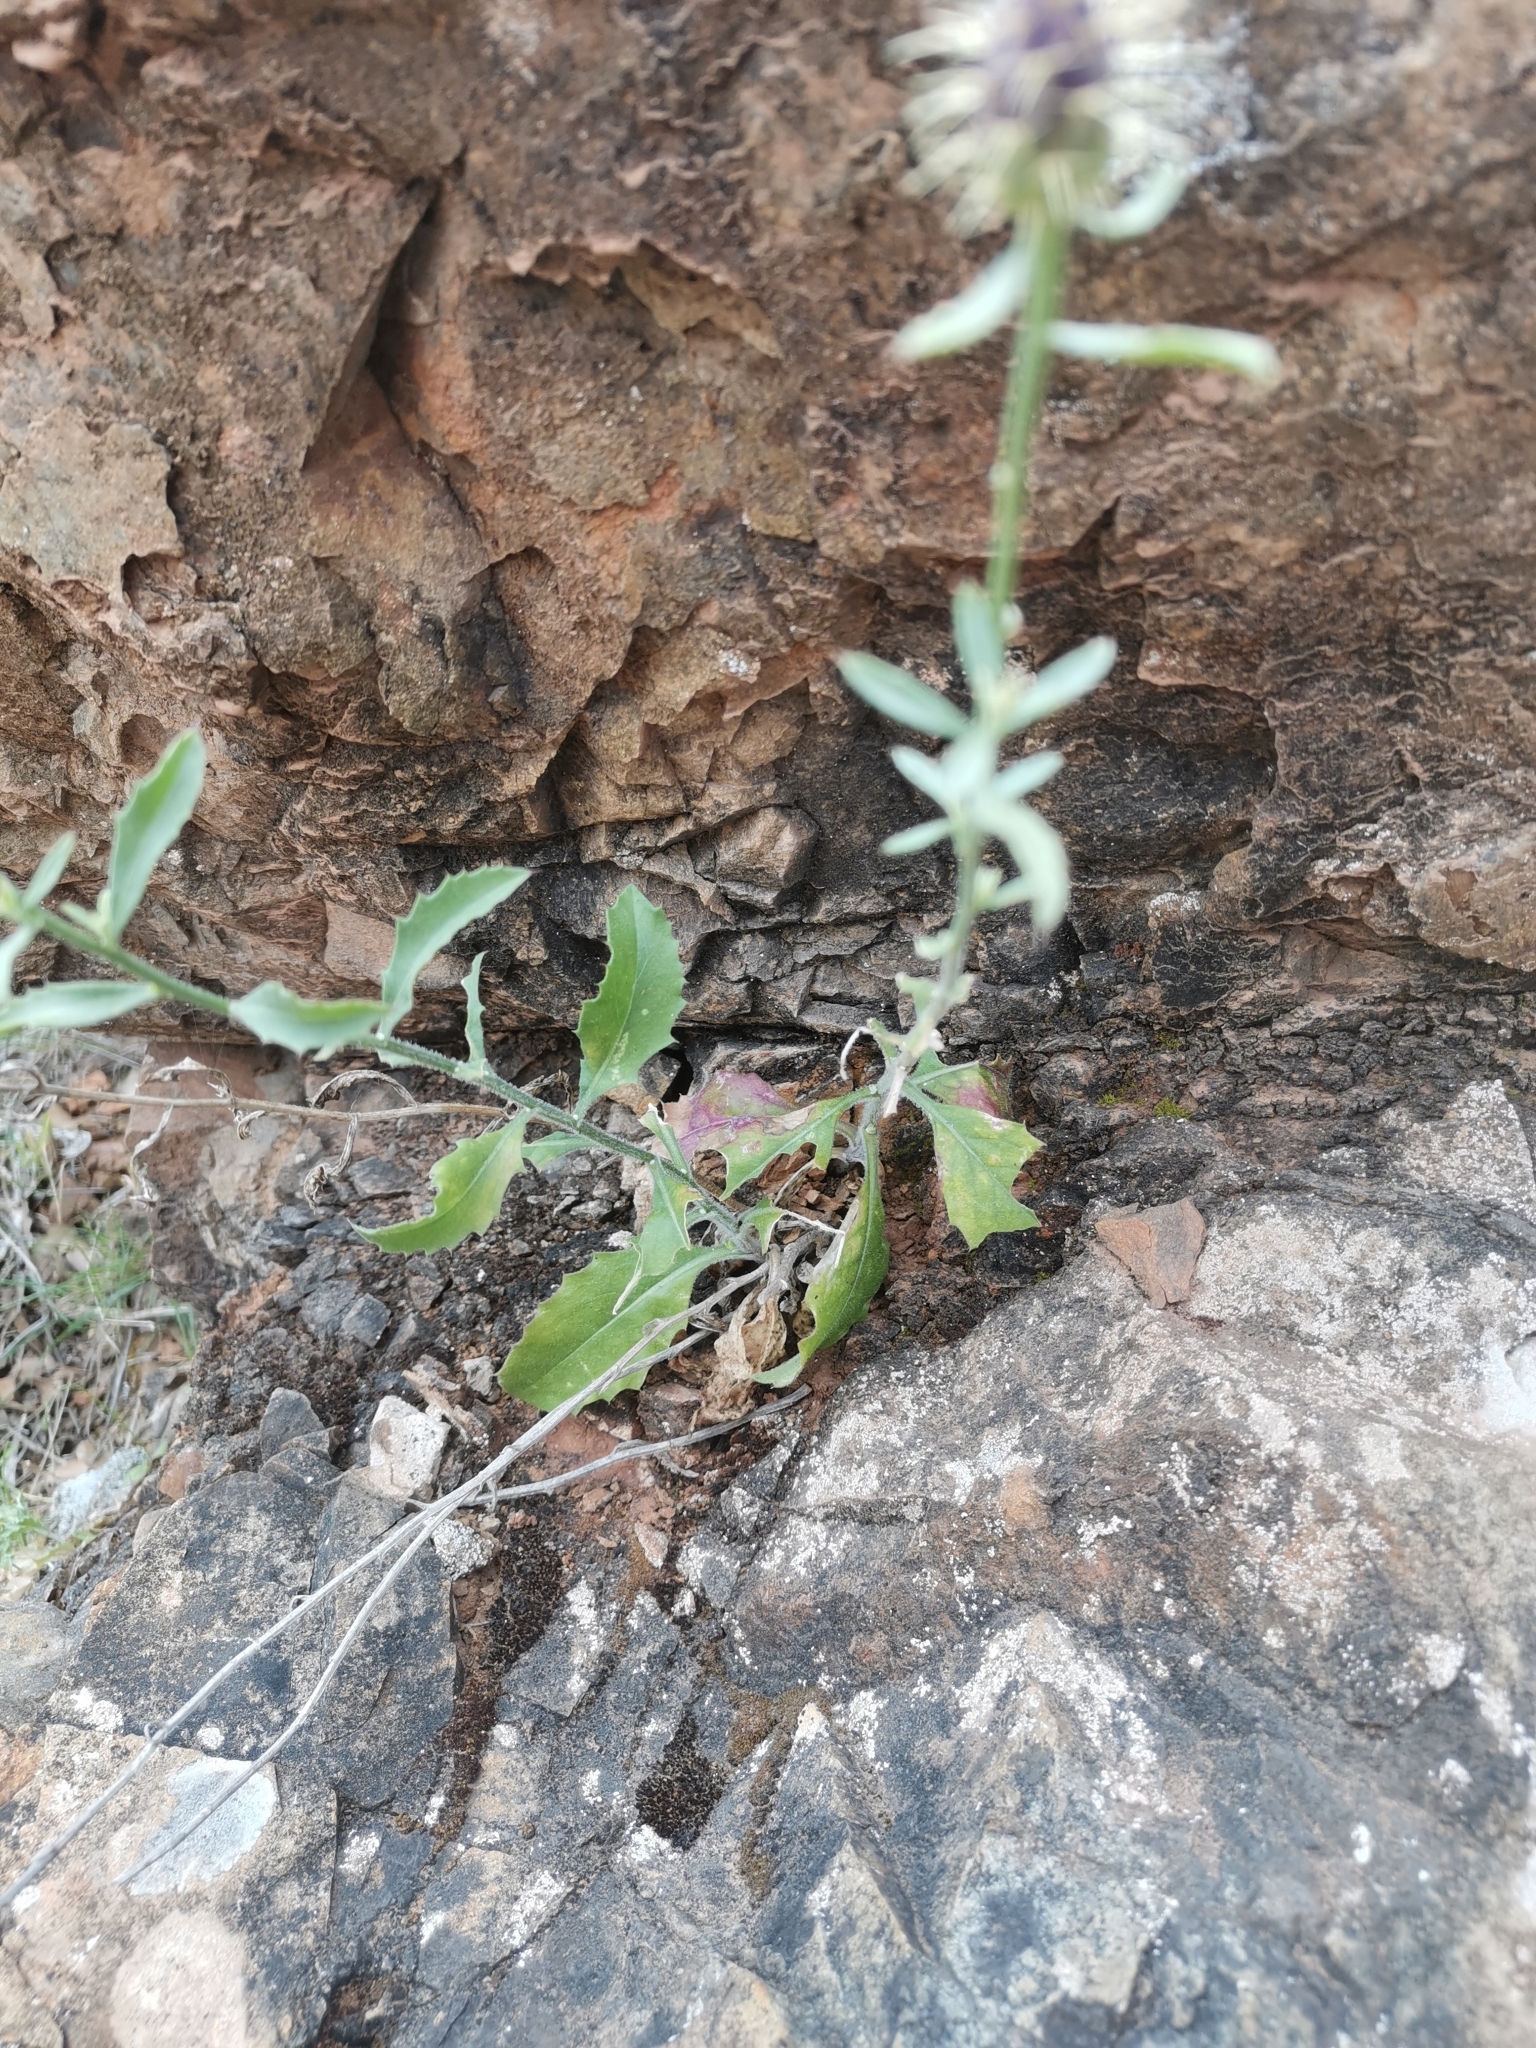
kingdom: Plantae
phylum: Tracheophyta
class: Magnoliopsida
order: Asterales
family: Asteraceae
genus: Centaurea
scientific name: Centaurea malacitana
